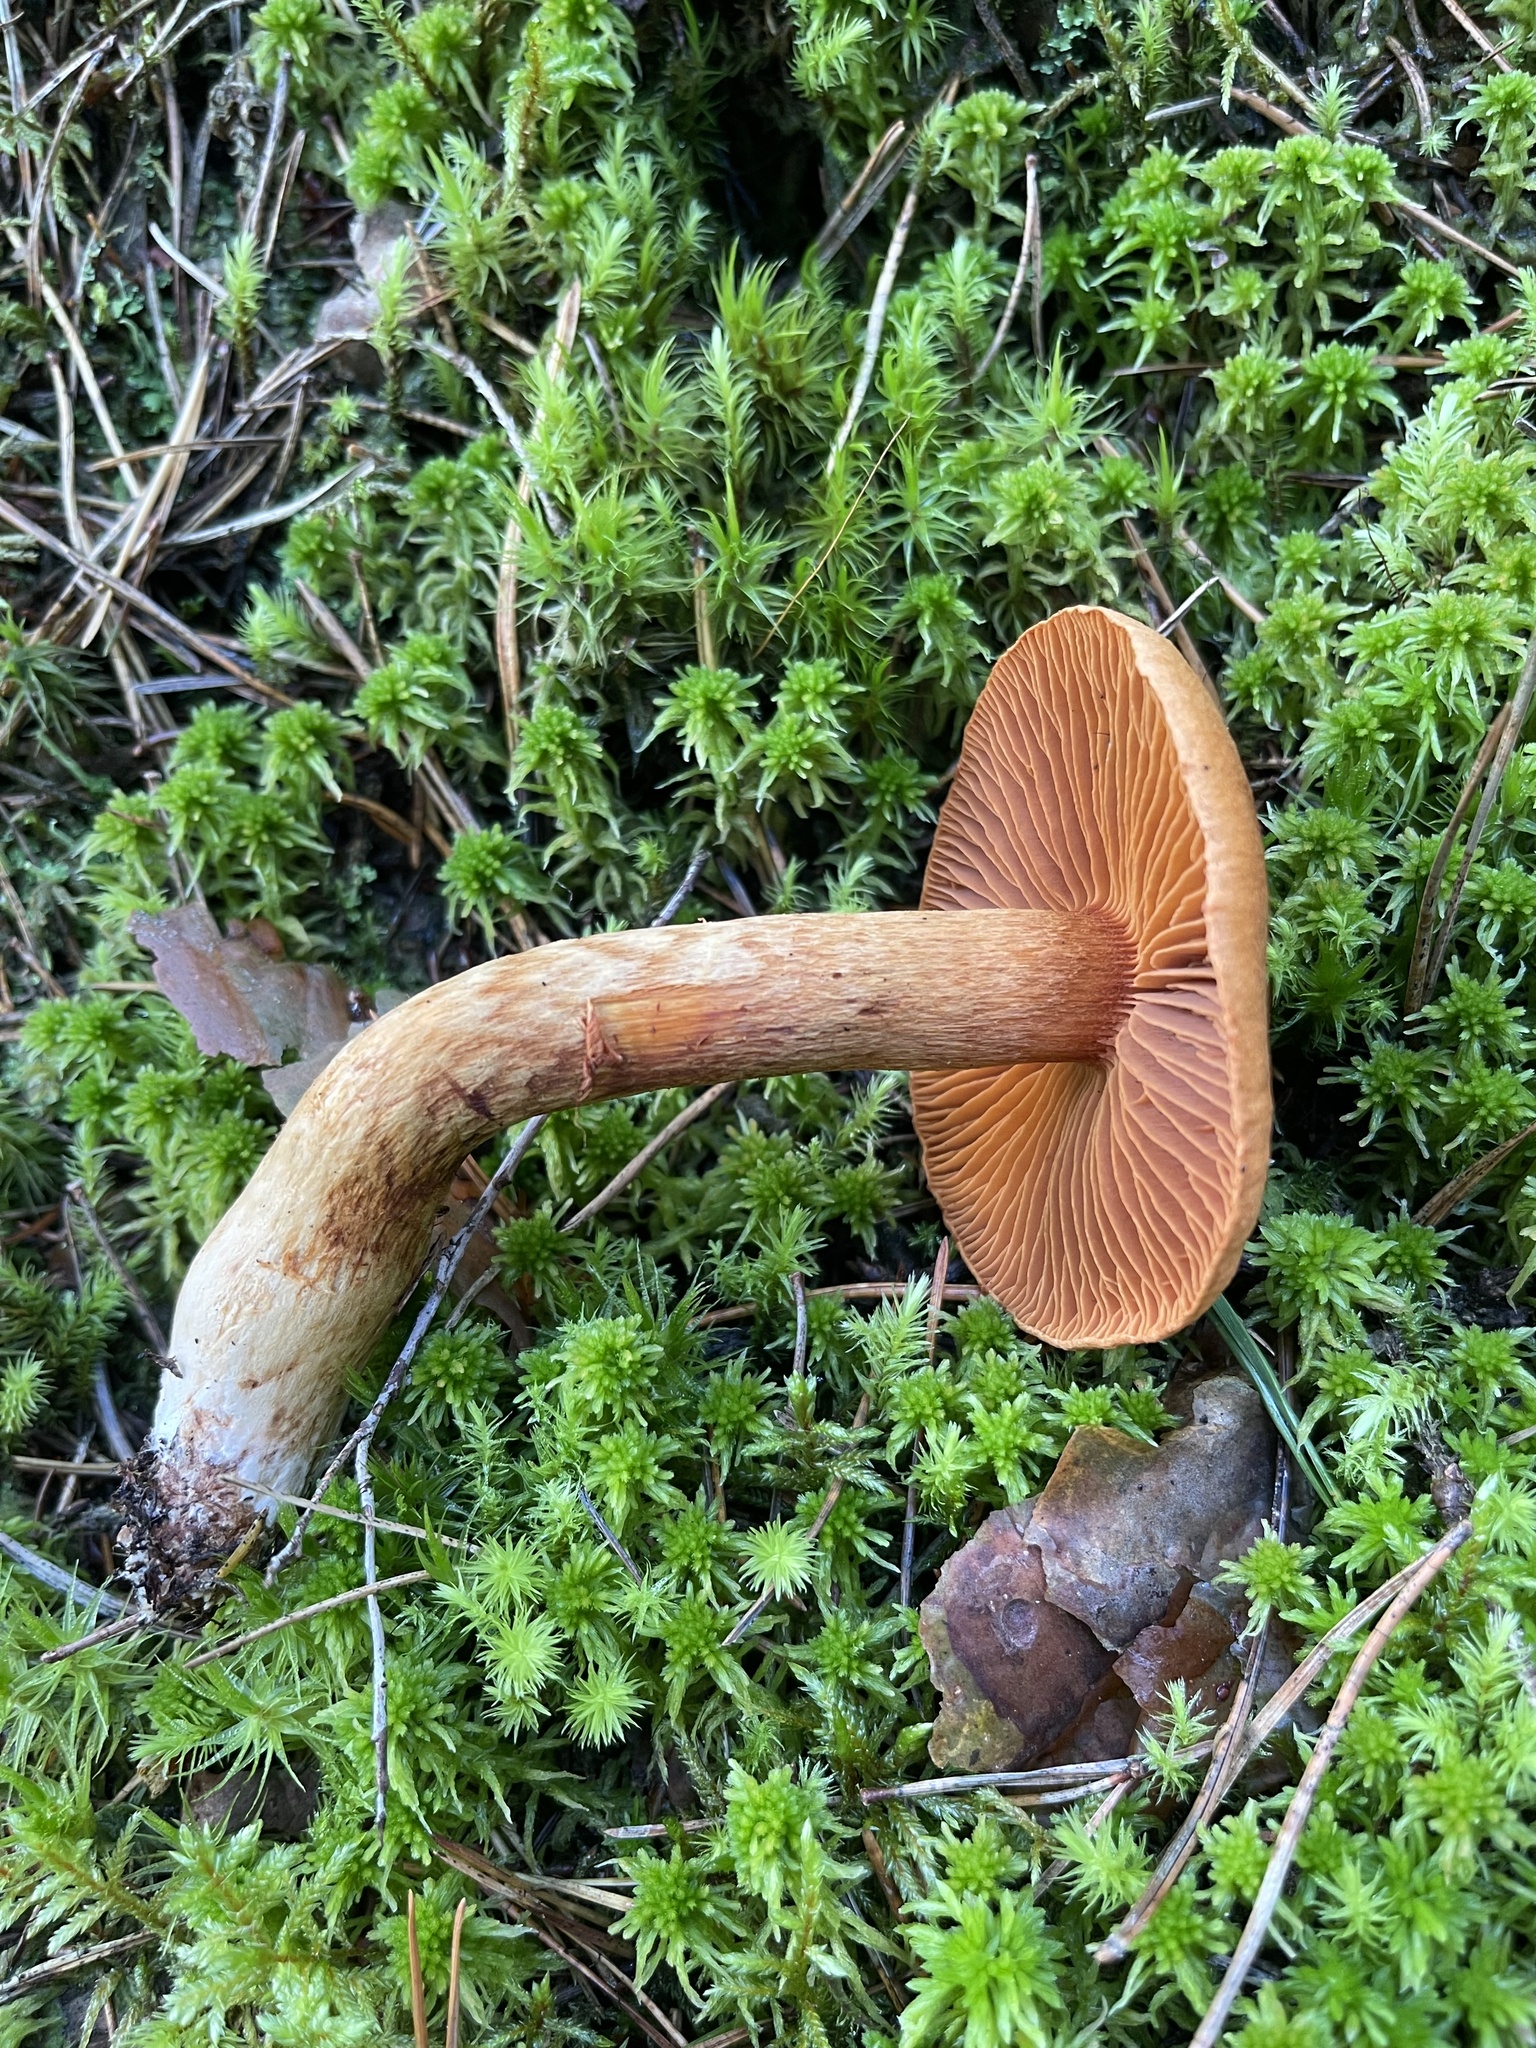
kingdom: Fungi
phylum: Basidiomycota
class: Agaricomycetes
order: Agaricales
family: Cortinariaceae
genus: Cortinarius
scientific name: Cortinarius rubellus
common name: Deadly webcap
